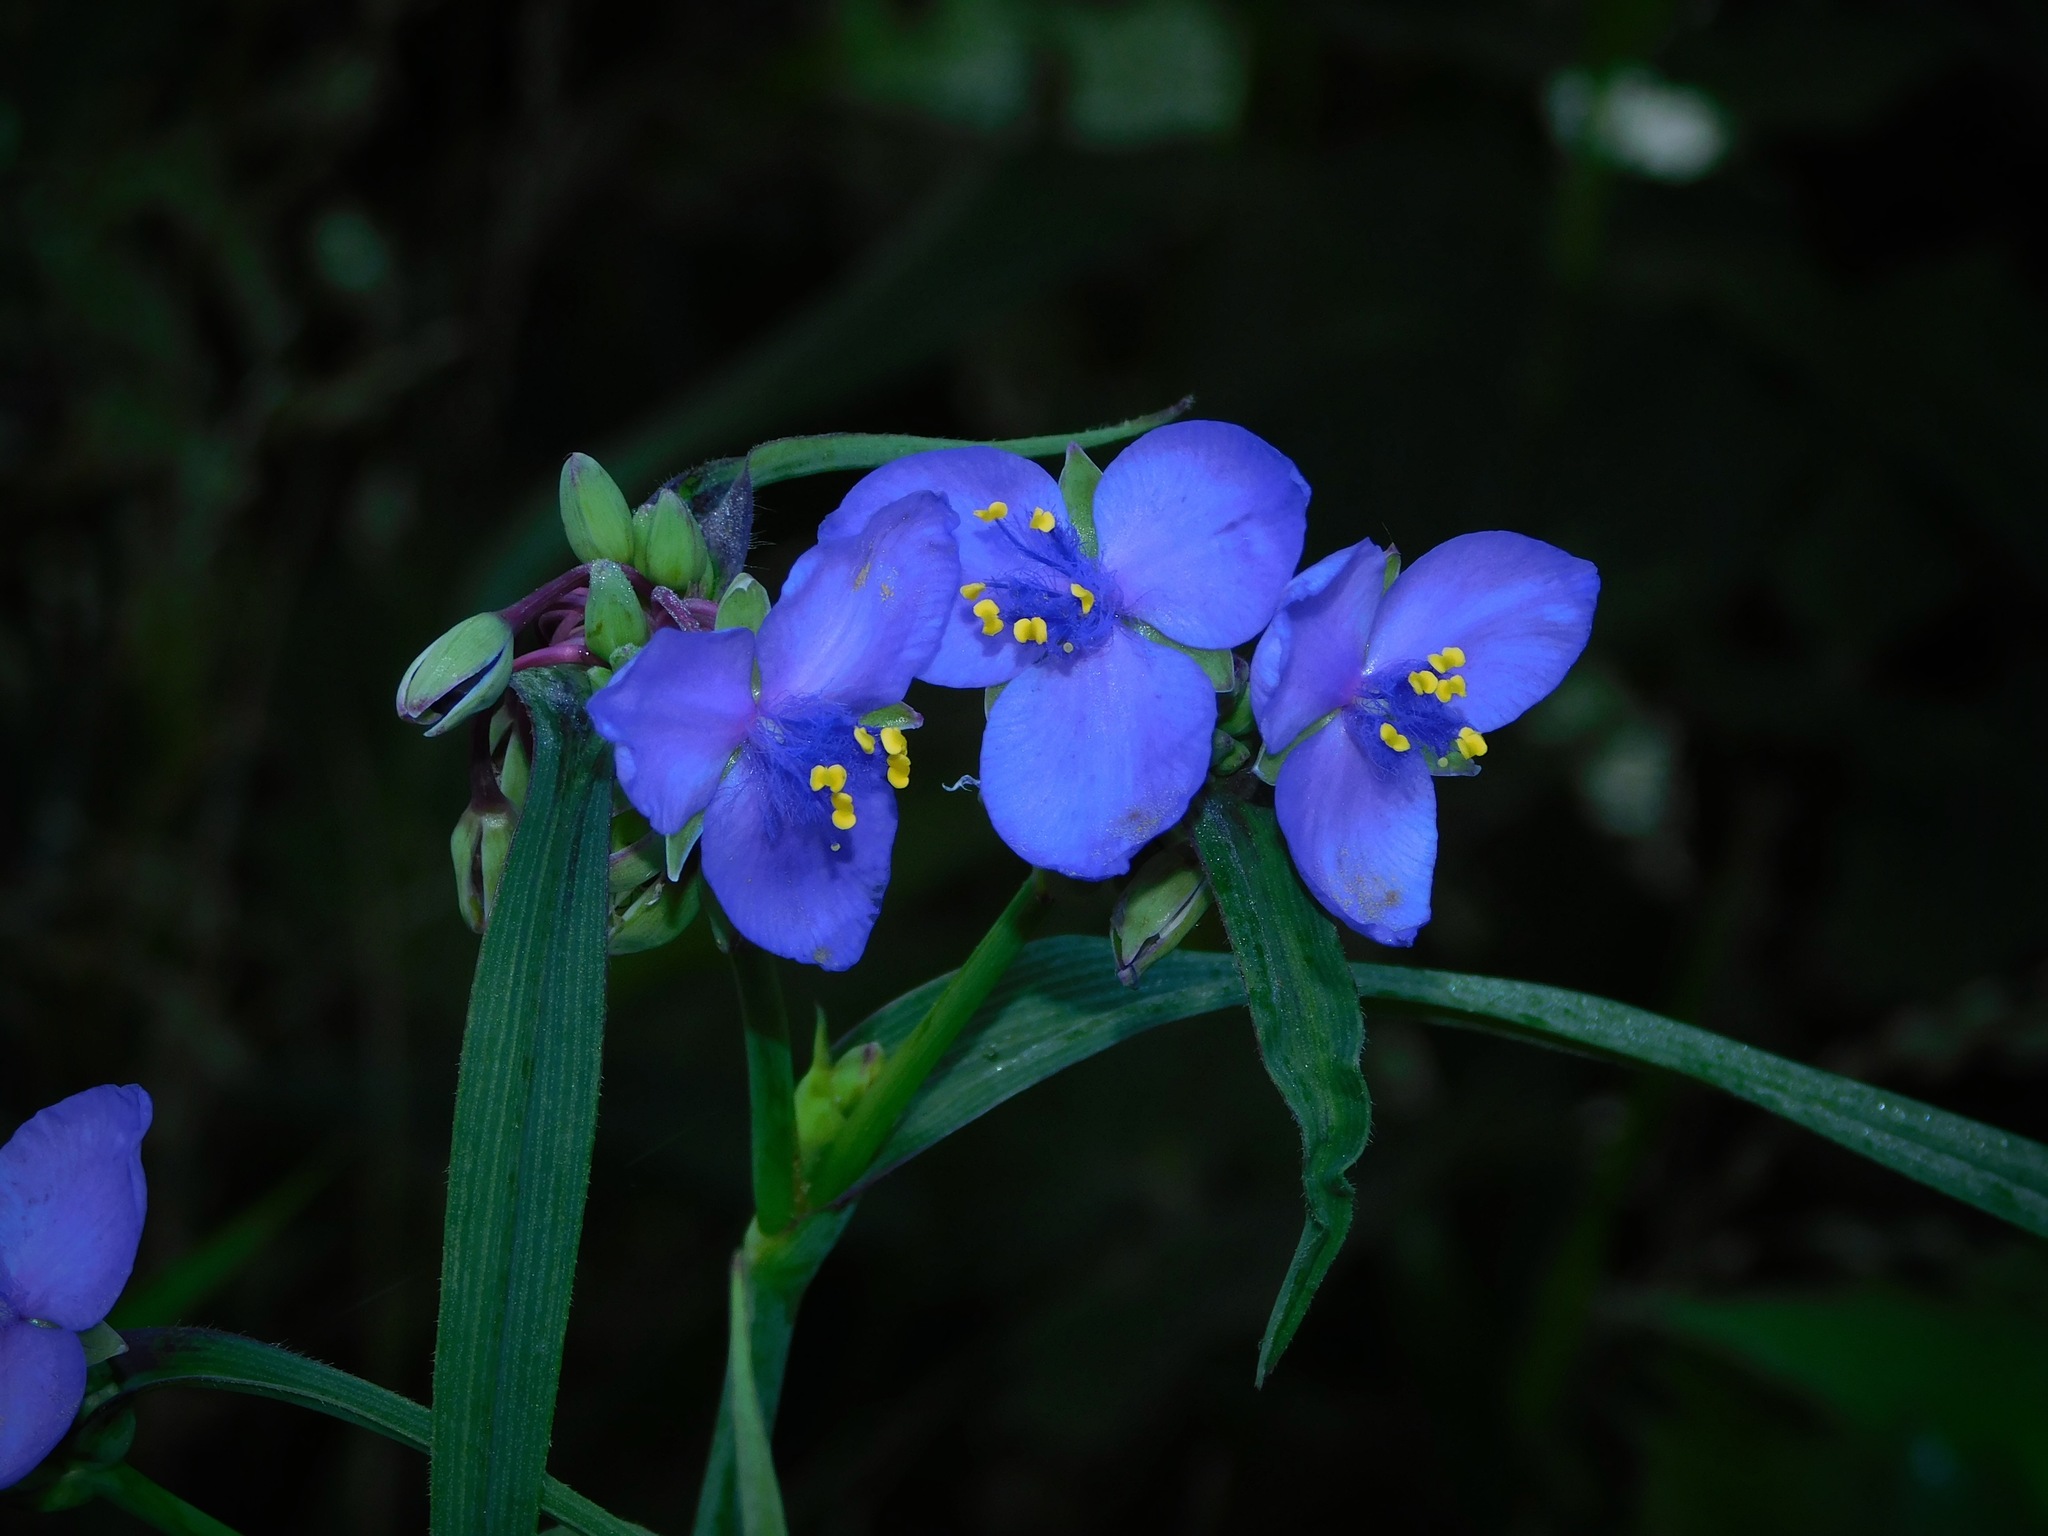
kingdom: Plantae
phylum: Tracheophyta
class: Liliopsida
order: Commelinales
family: Commelinaceae
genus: Tradescantia
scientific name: Tradescantia ohiensis
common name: Ohio spiderwort
